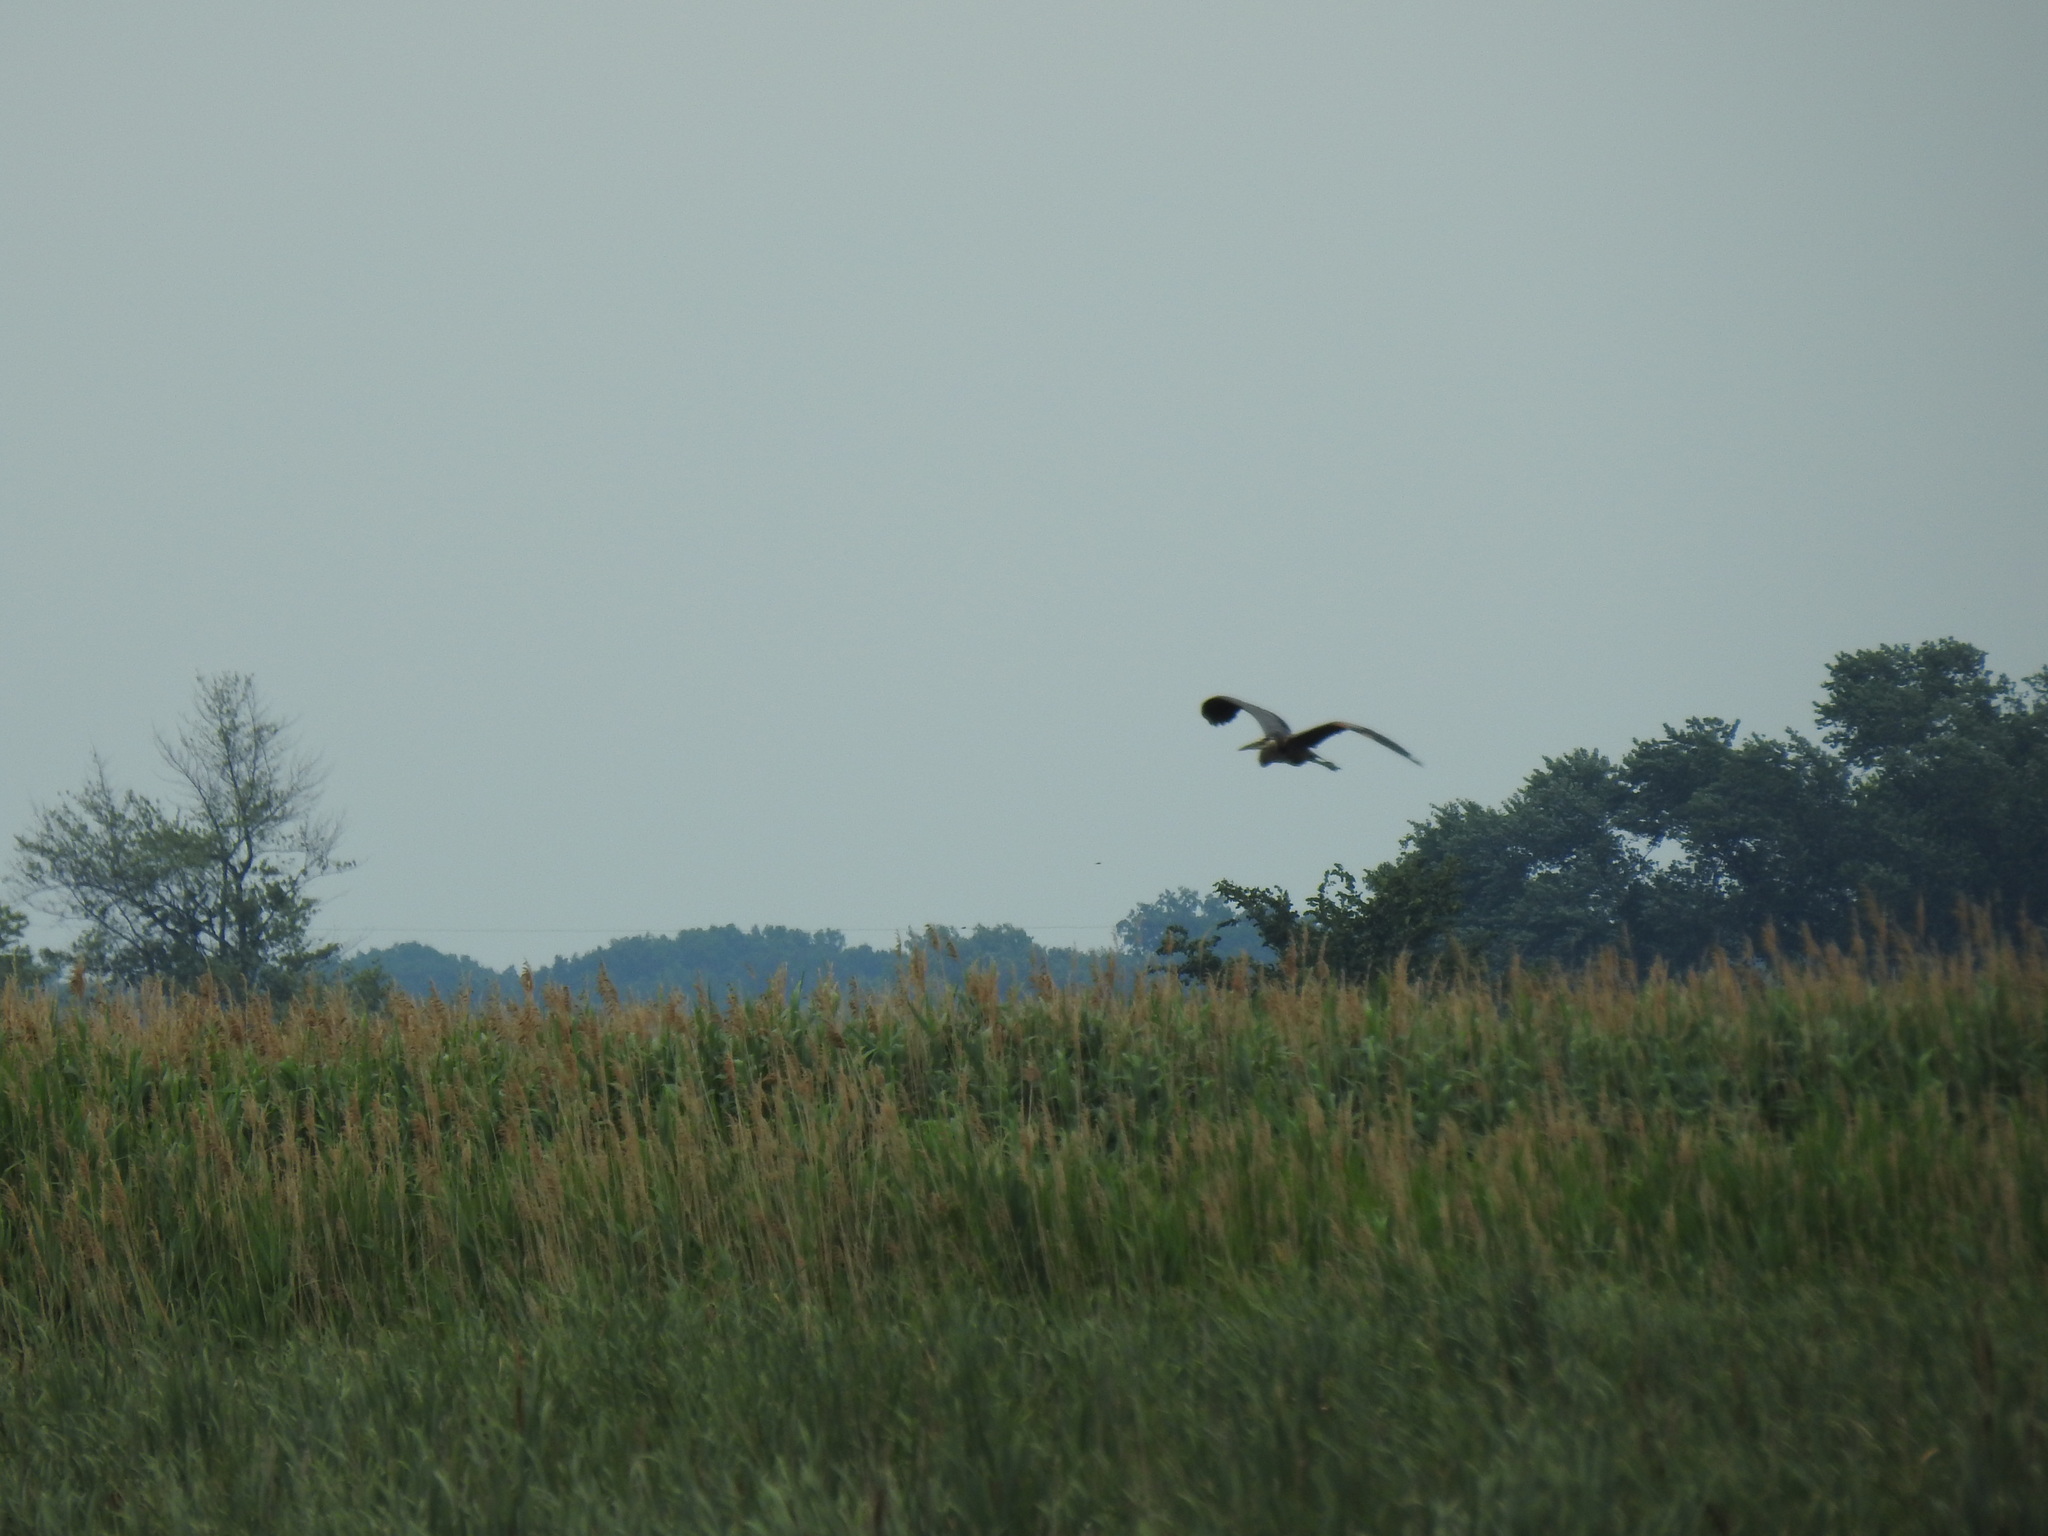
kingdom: Animalia
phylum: Chordata
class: Aves
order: Pelecaniformes
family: Ardeidae
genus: Ardea
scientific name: Ardea herodias
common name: Great blue heron
